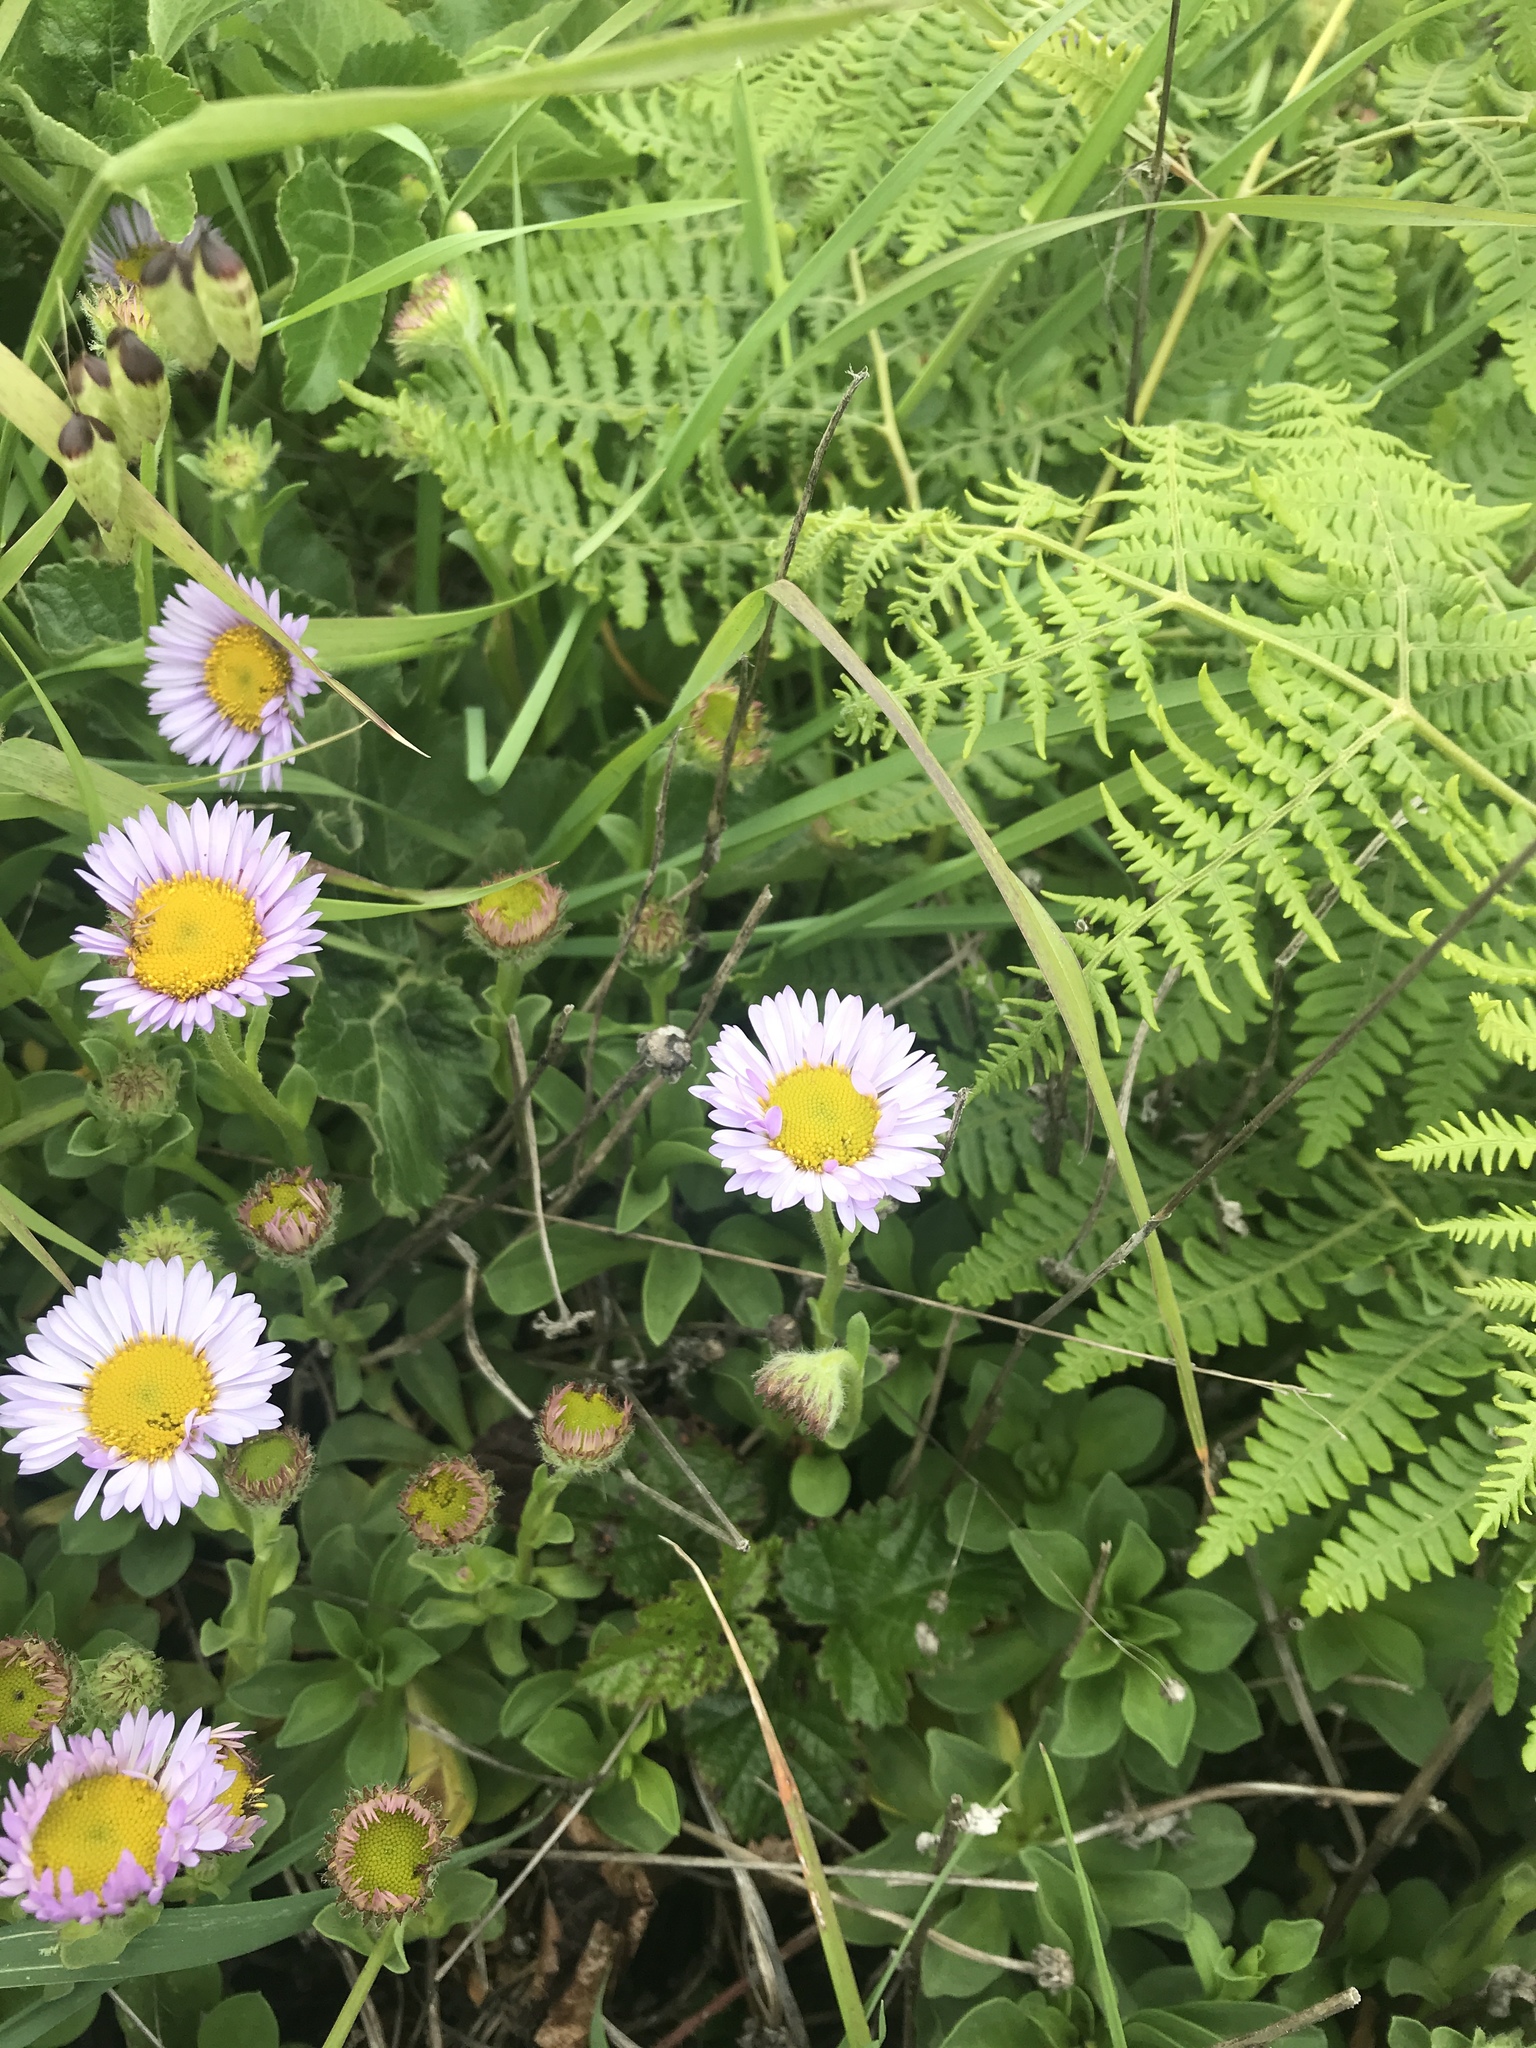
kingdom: Plantae
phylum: Tracheophyta
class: Magnoliopsida
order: Asterales
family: Asteraceae
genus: Erigeron
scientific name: Erigeron glaucus
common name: Seaside daisy
